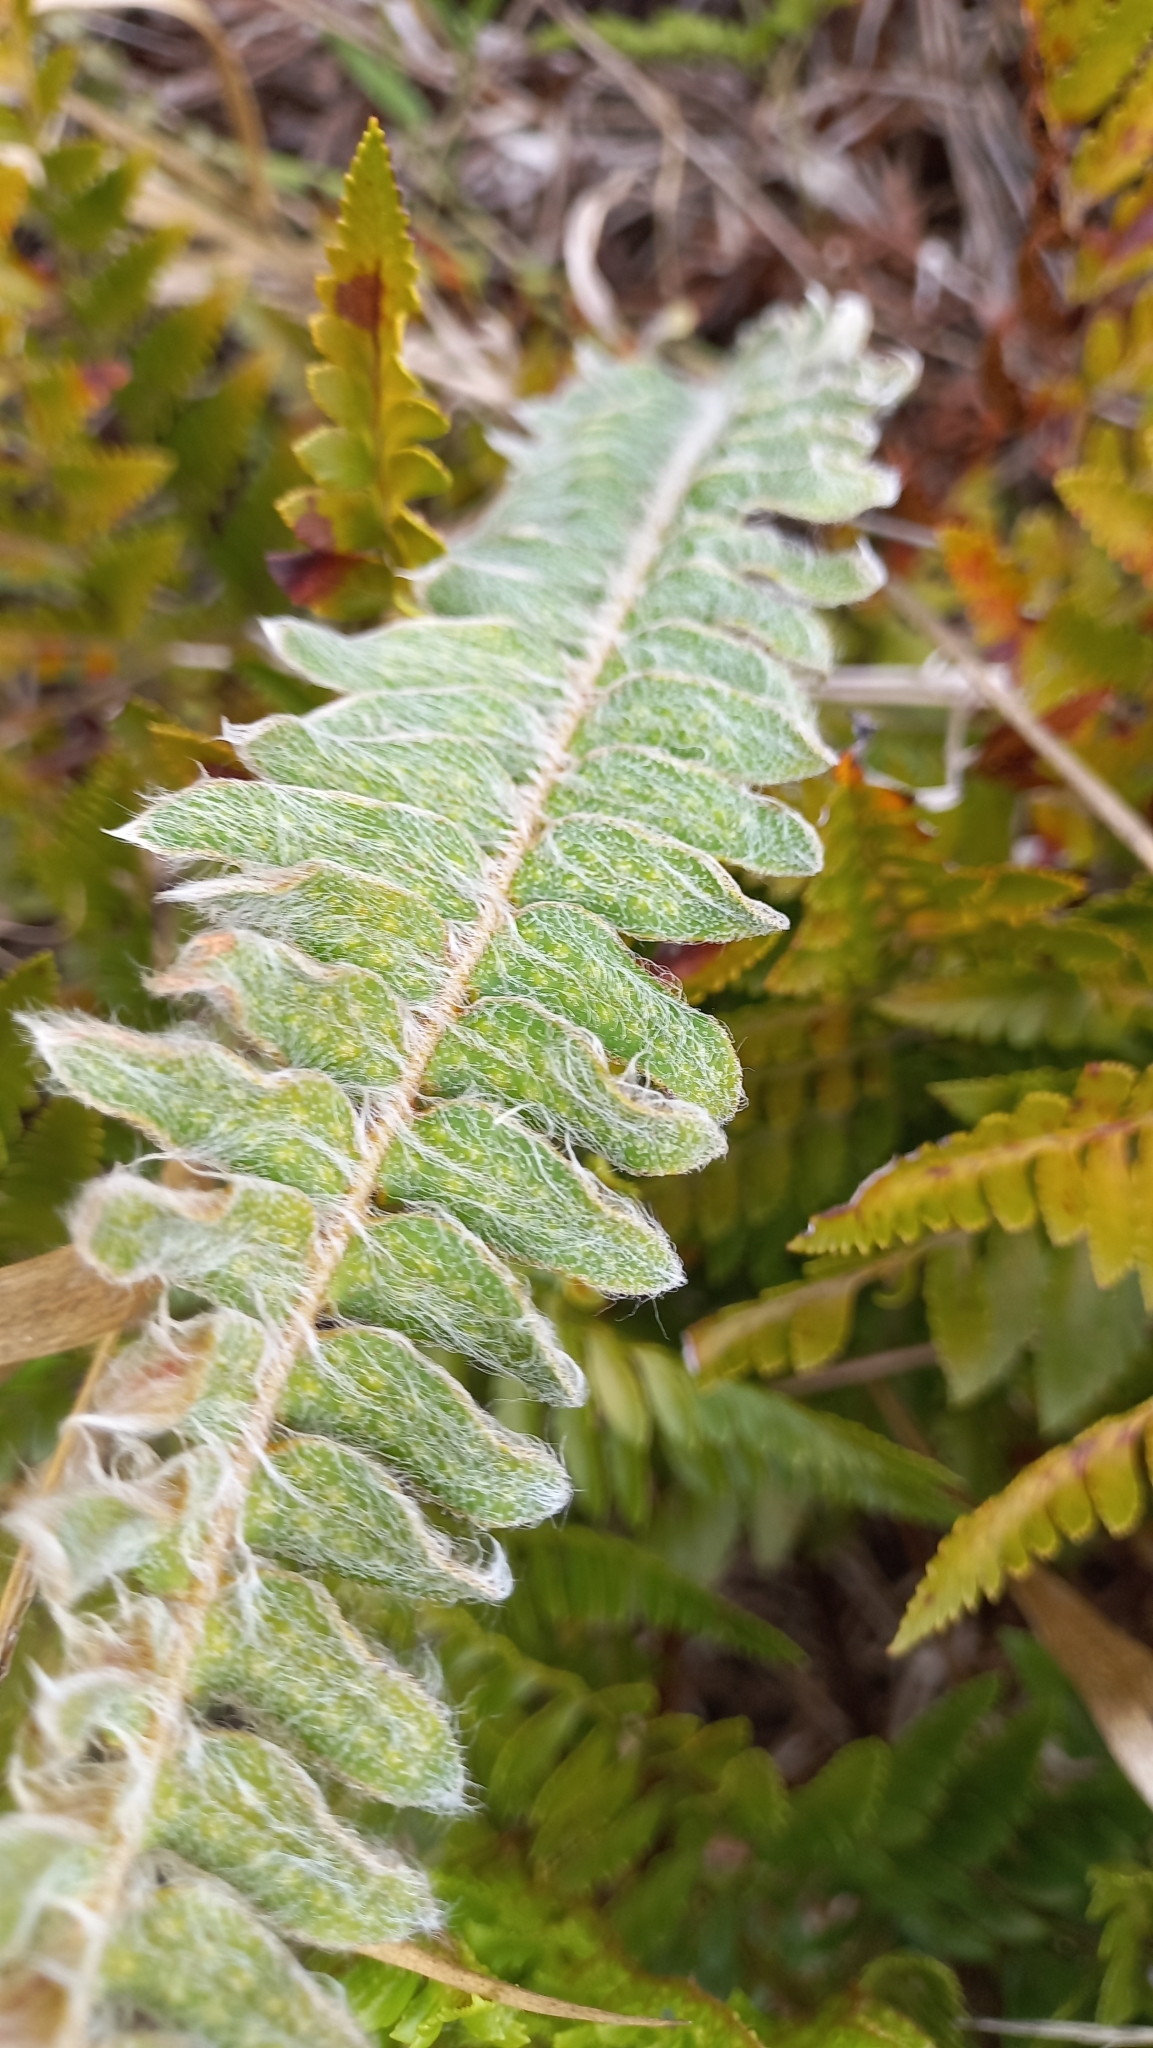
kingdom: Plantae
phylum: Tracheophyta
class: Polypodiopsida
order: Polypodiales
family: Polypodiaceae
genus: Pleopeltis
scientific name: Pleopeltis lepidopteris
